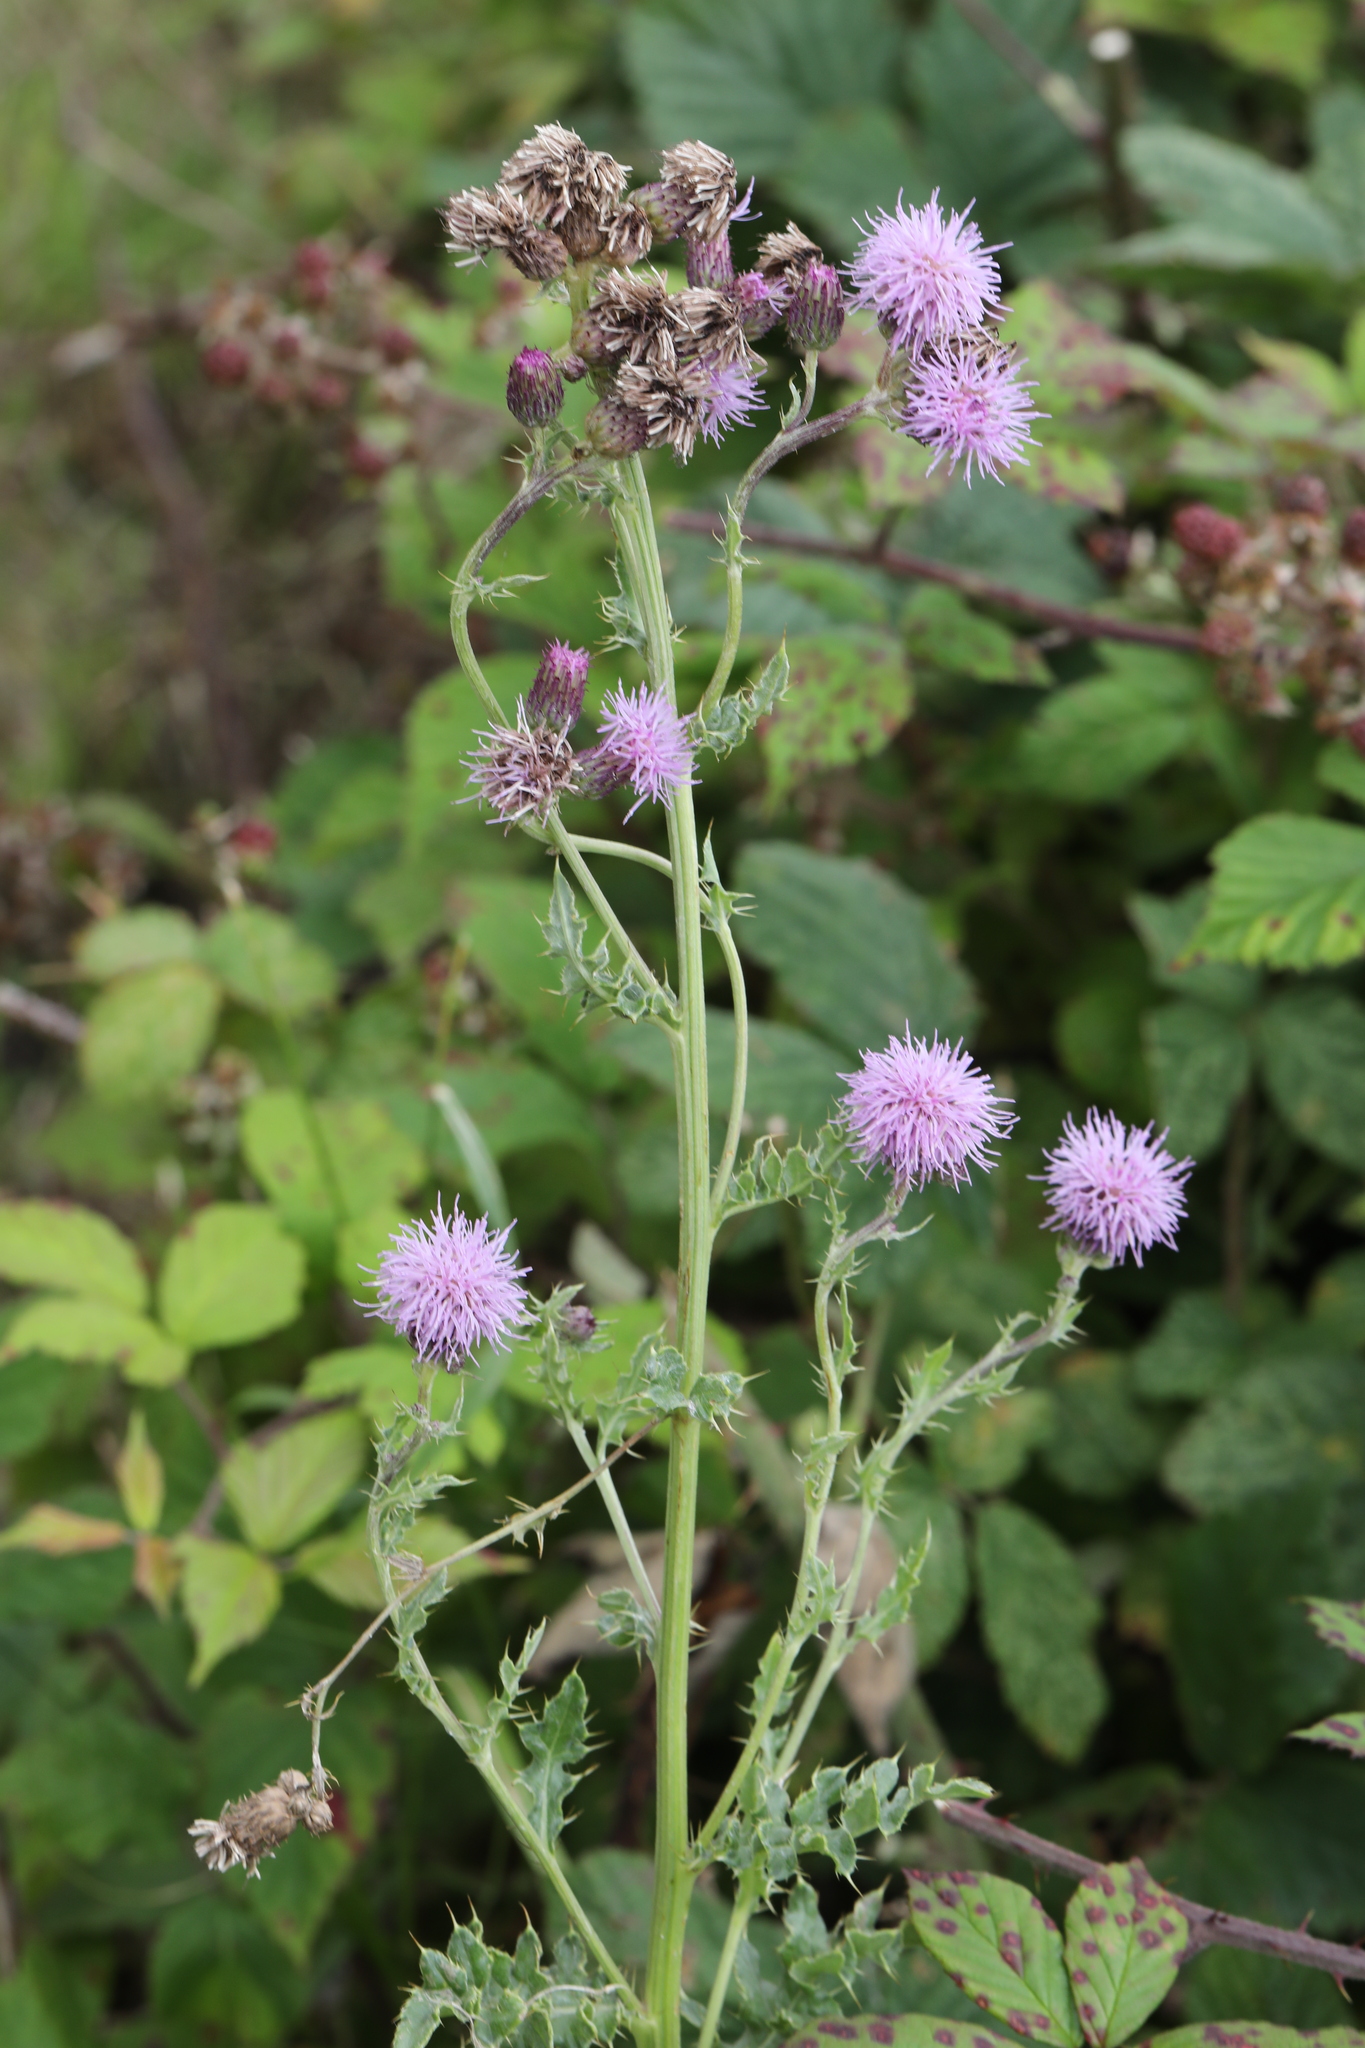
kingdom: Plantae
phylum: Tracheophyta
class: Magnoliopsida
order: Asterales
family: Asteraceae
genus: Cirsium
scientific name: Cirsium arvense
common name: Creeping thistle
